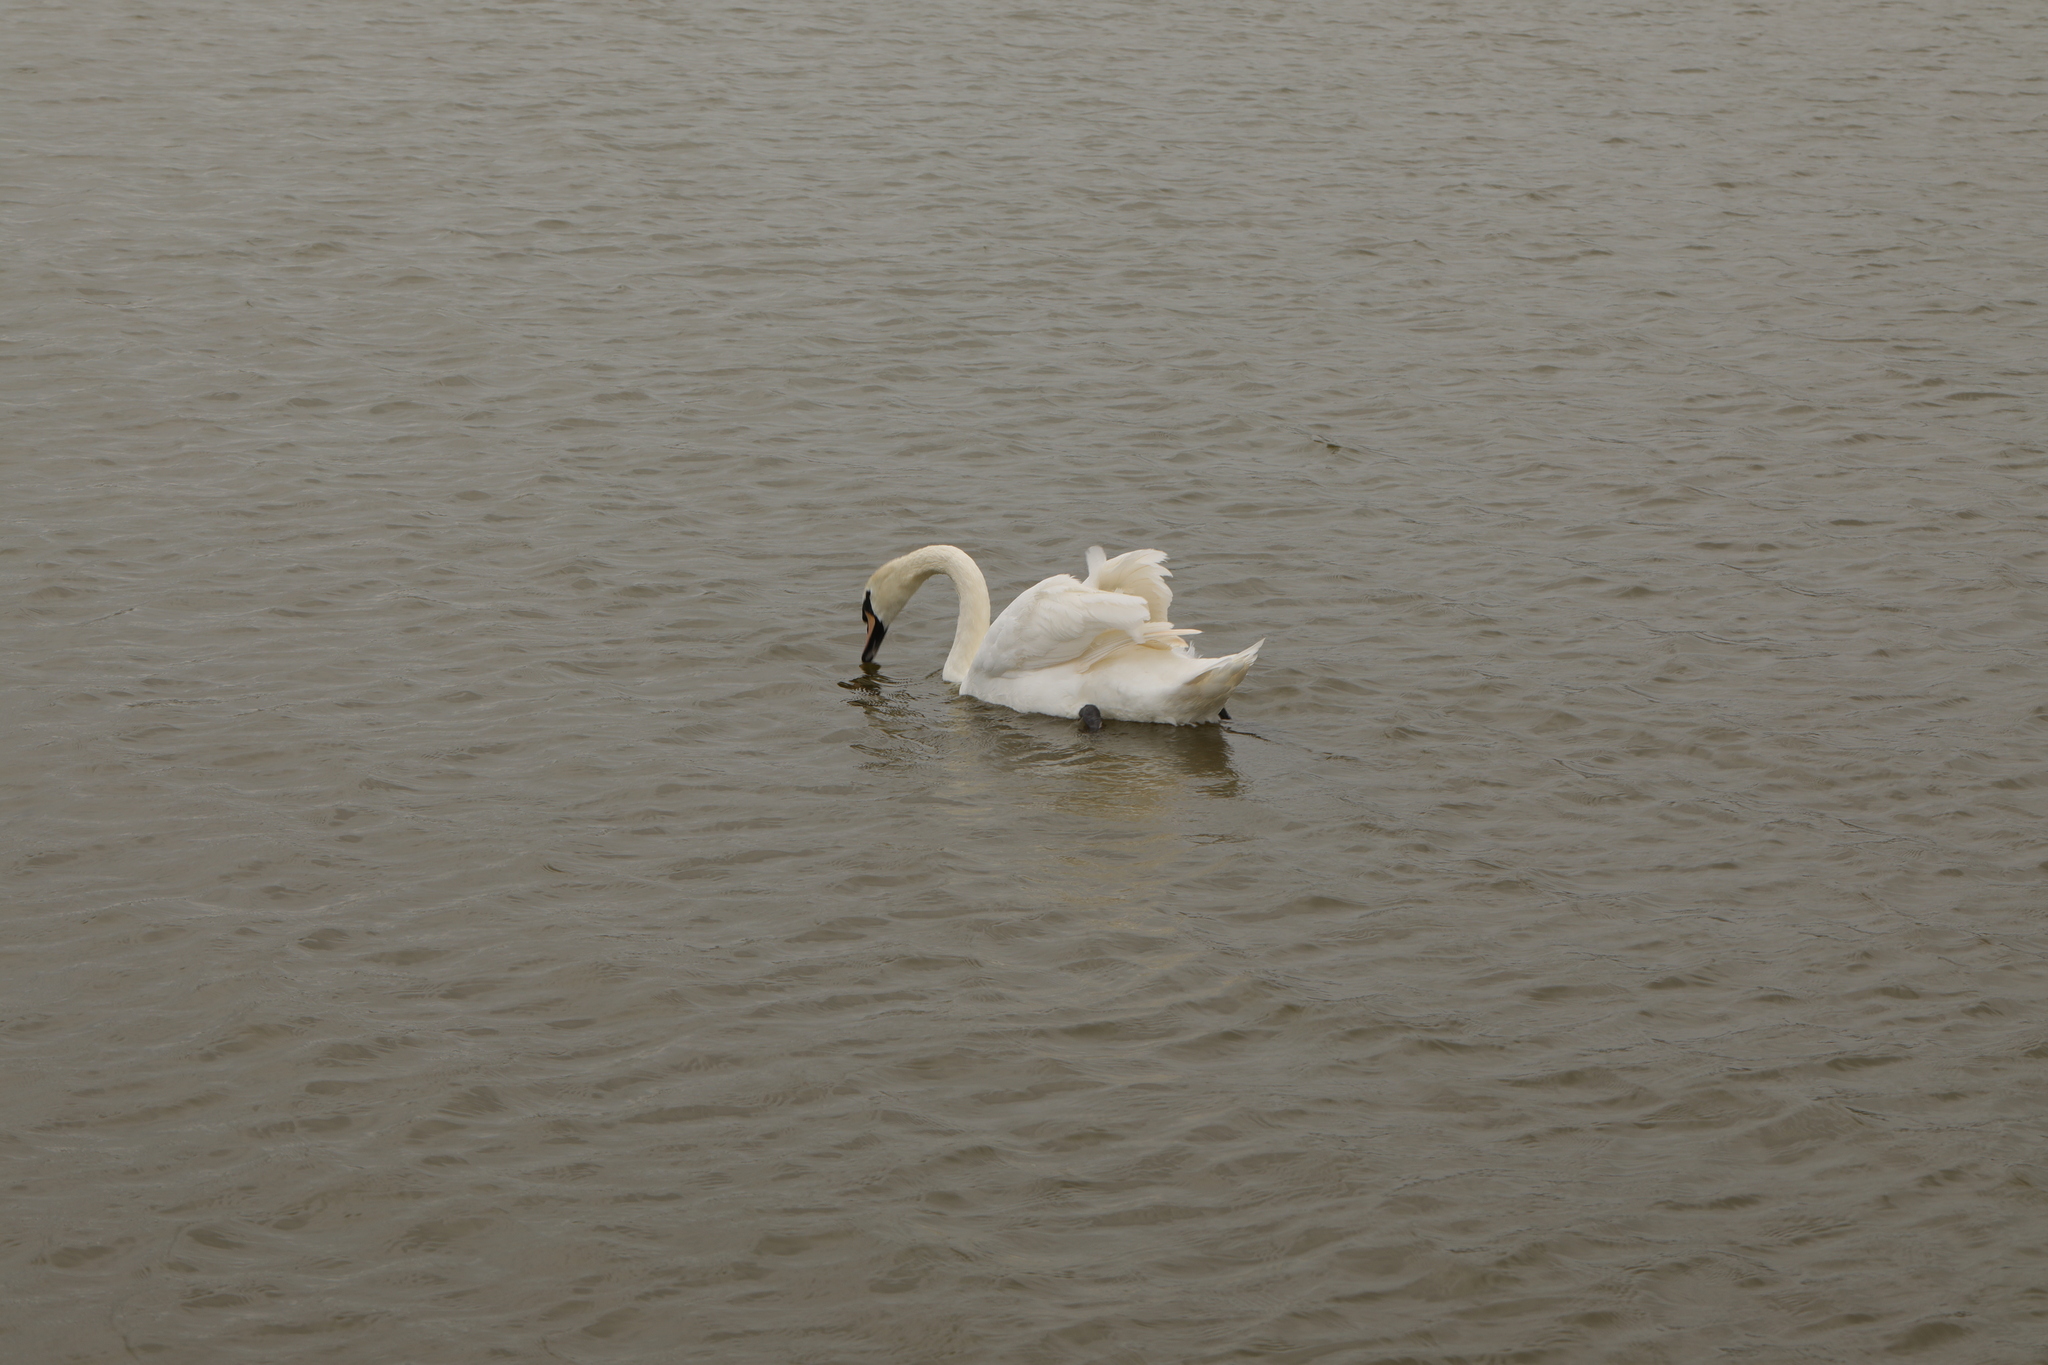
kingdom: Animalia
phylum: Chordata
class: Aves
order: Anseriformes
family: Anatidae
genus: Cygnus
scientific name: Cygnus olor
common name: Mute swan
